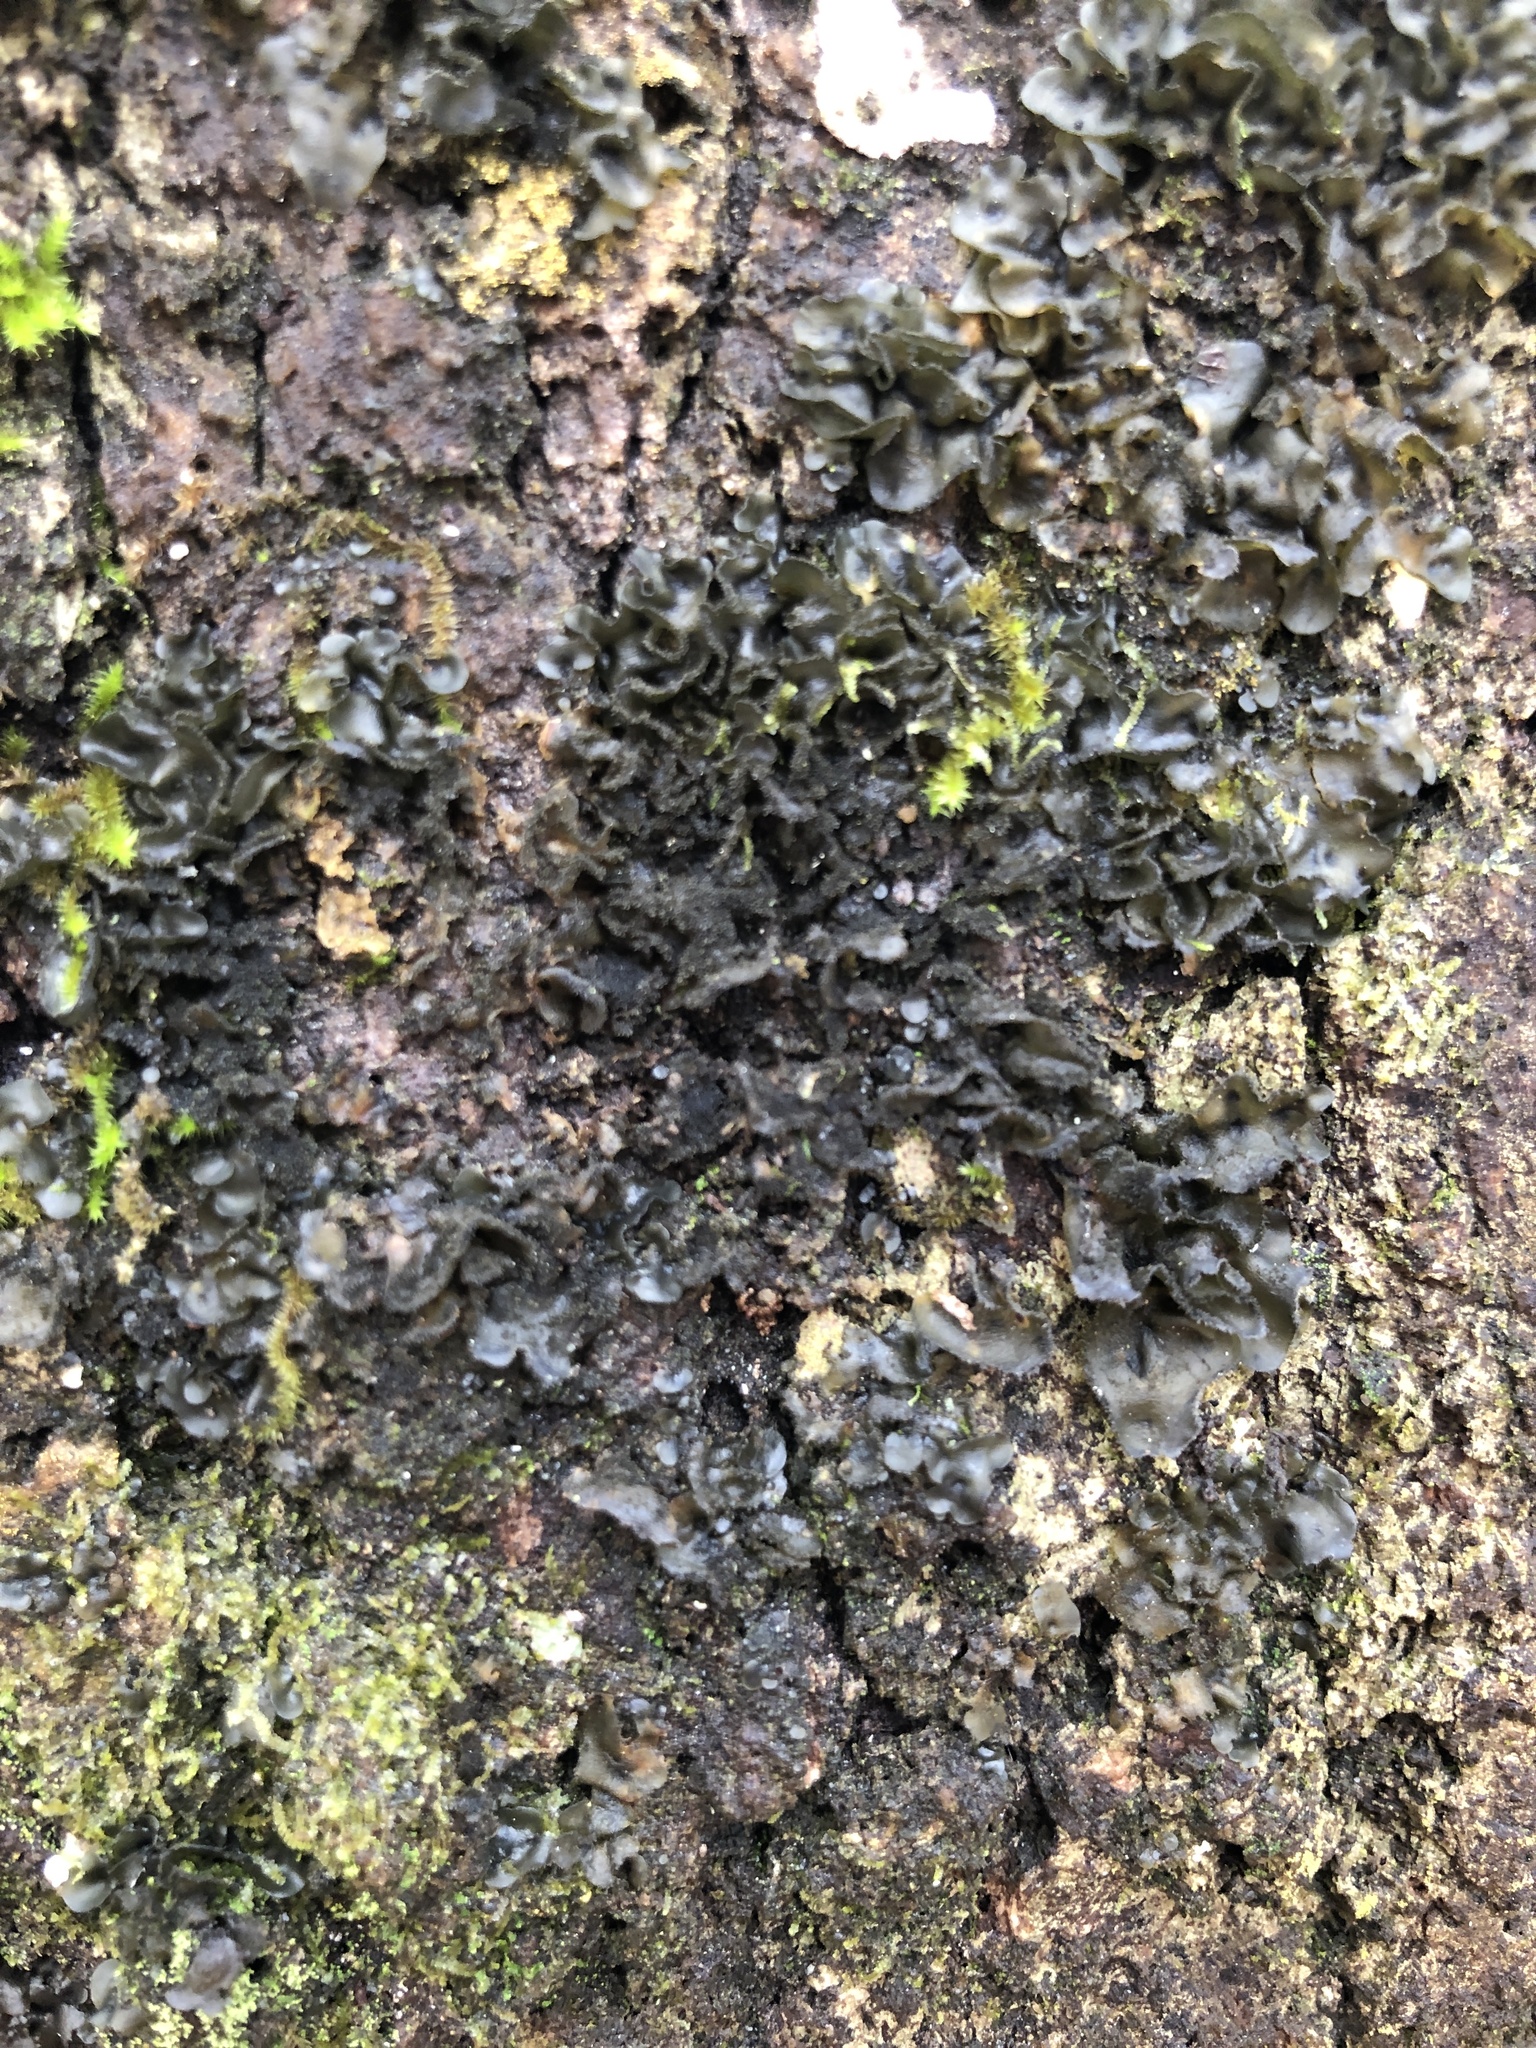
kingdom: Fungi
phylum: Ascomycota
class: Lecanoromycetes
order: Peltigerales
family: Collemataceae
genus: Leptogium
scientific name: Leptogium cyanescens
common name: Blue jellyskin
